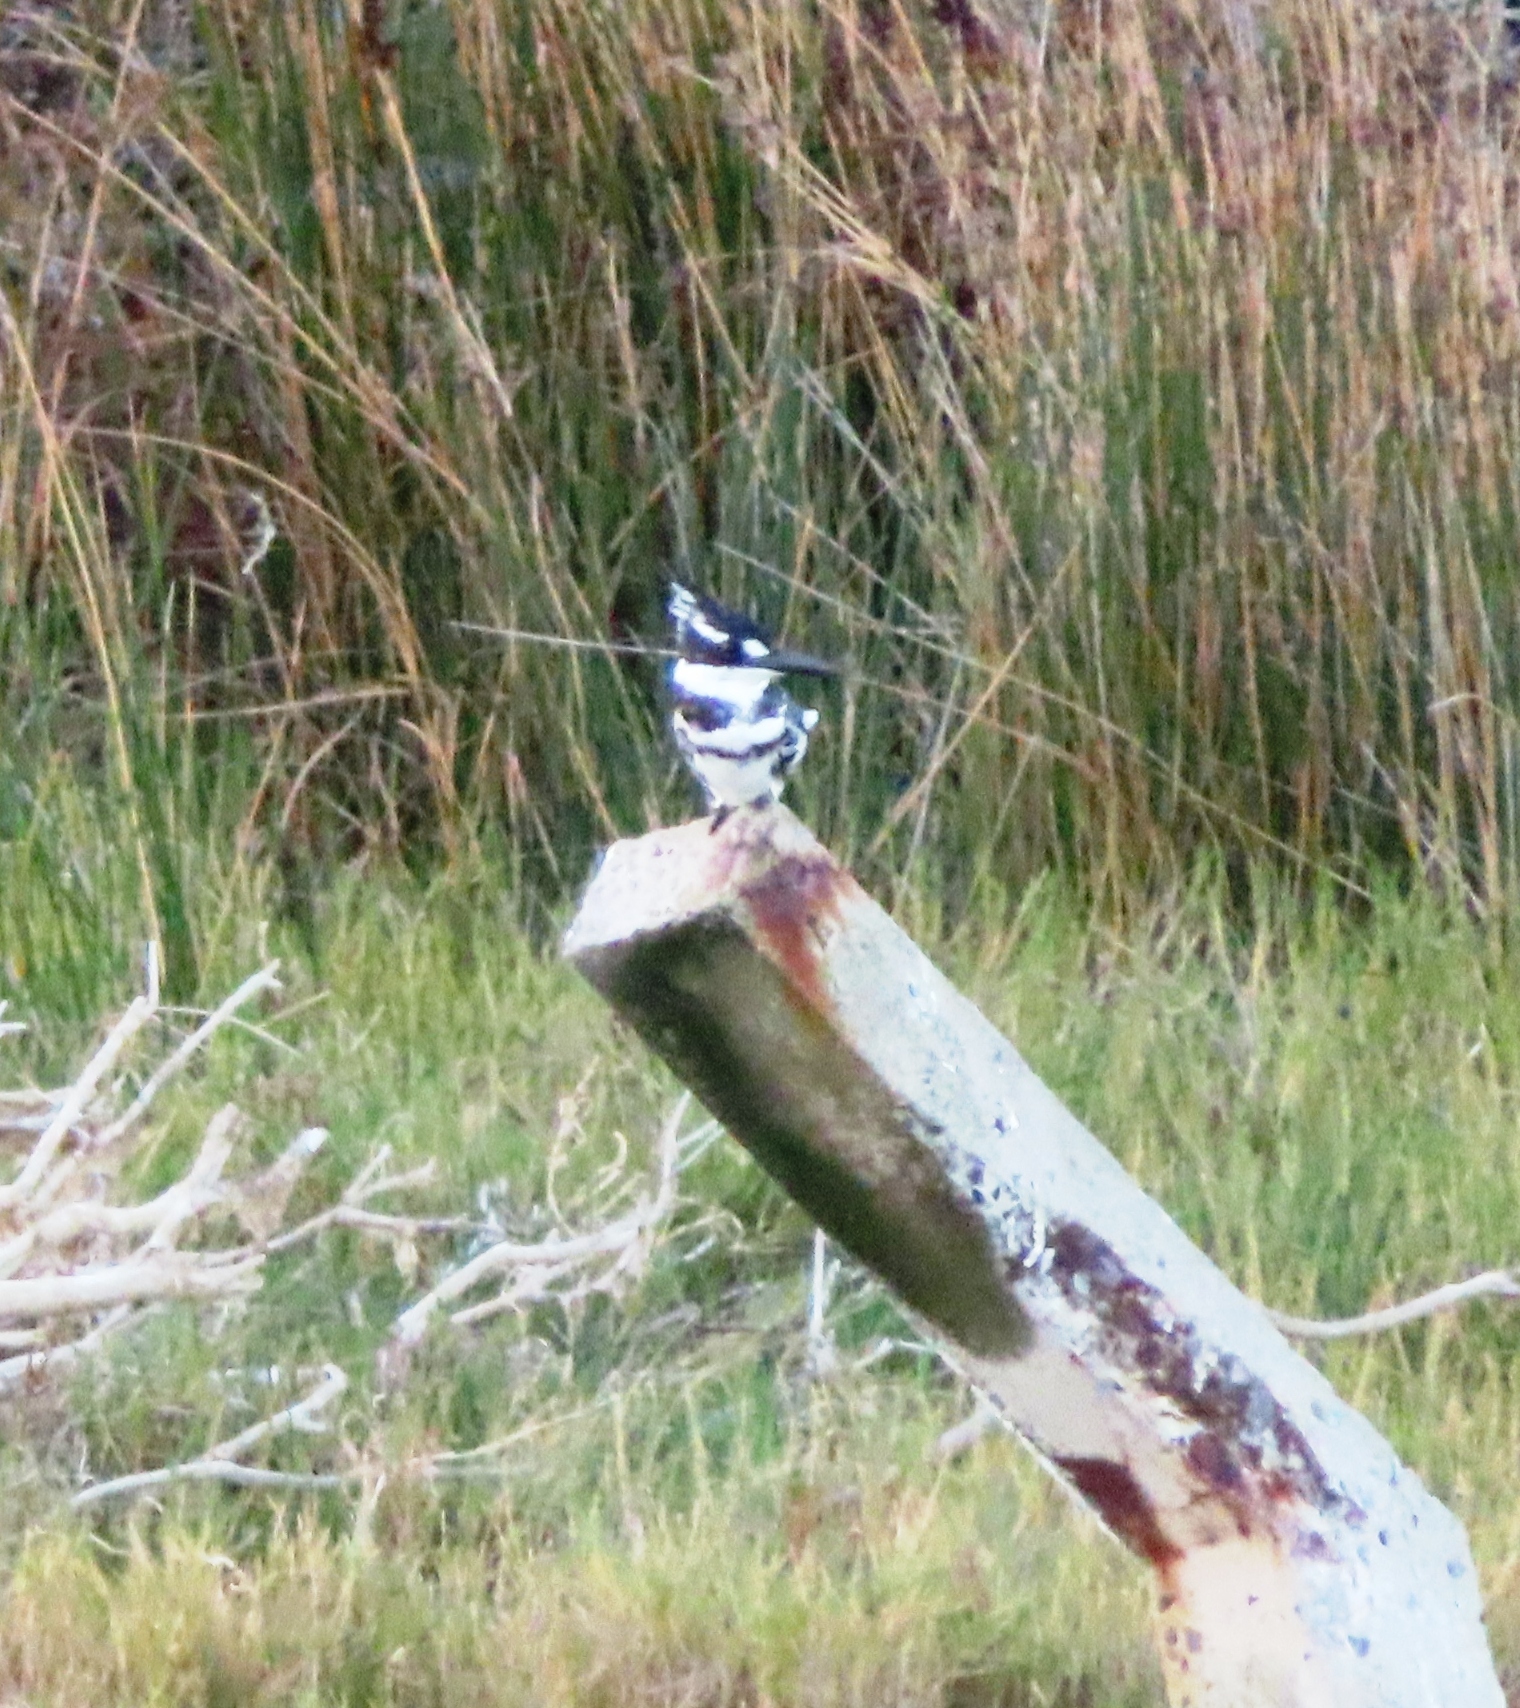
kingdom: Animalia
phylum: Chordata
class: Aves
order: Coraciiformes
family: Alcedinidae
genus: Ceryle
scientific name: Ceryle rudis
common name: Pied kingfisher
